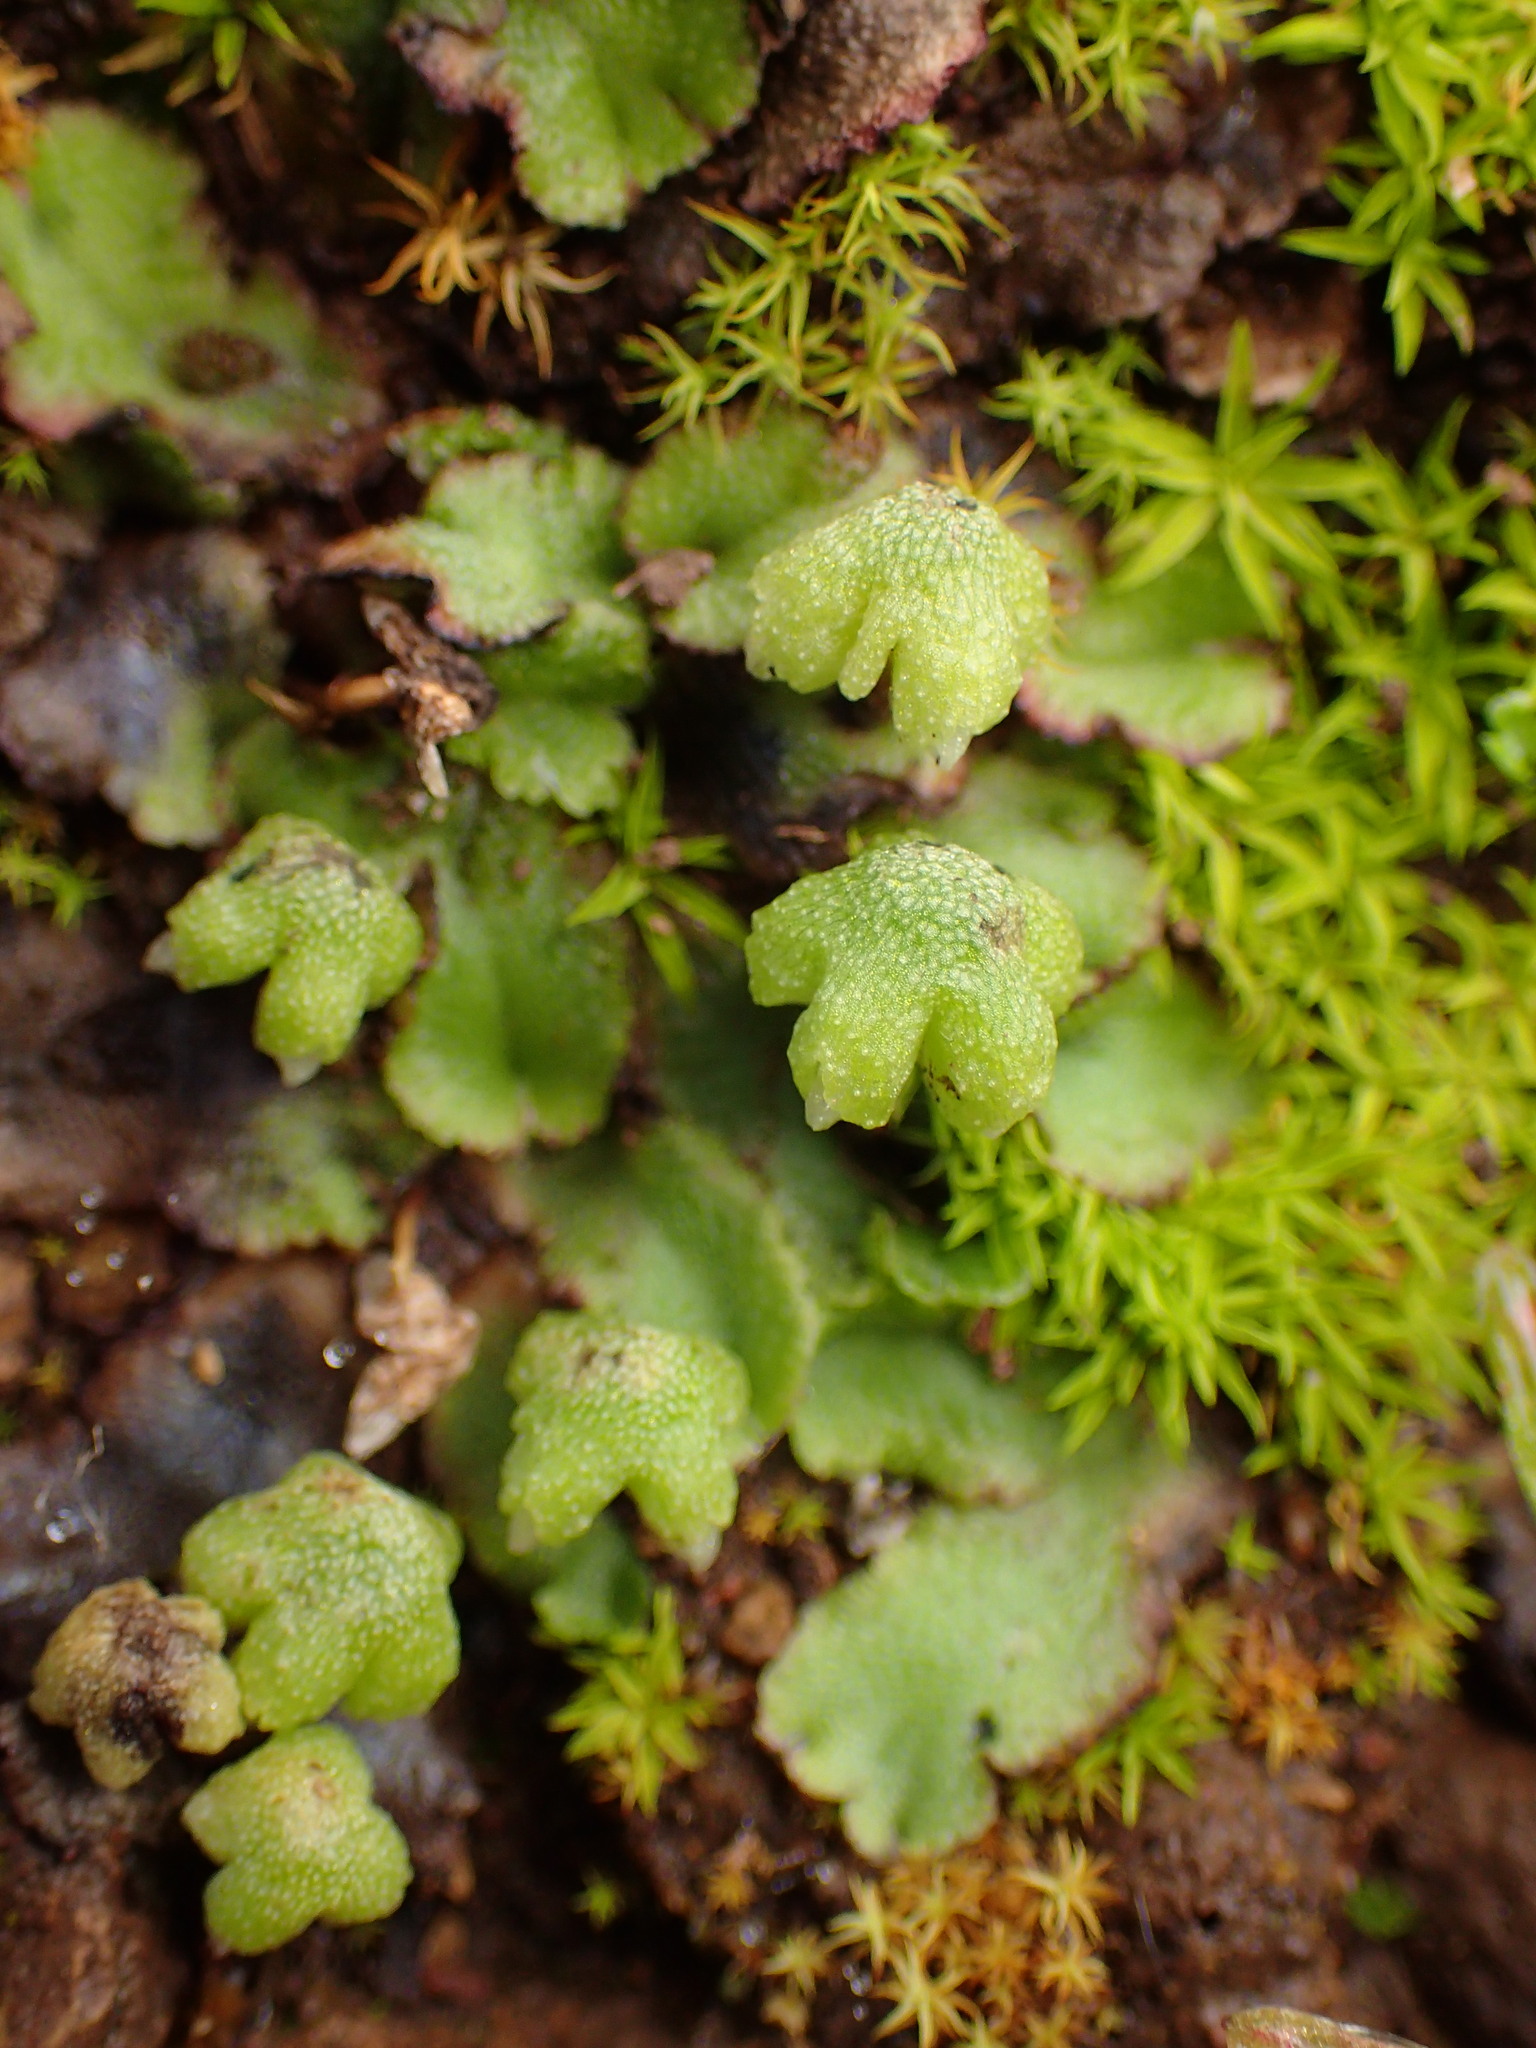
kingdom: Plantae
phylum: Marchantiophyta
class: Marchantiopsida
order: Marchantiales
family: Aytoniaceae
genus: Asterella
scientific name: Asterella californica
